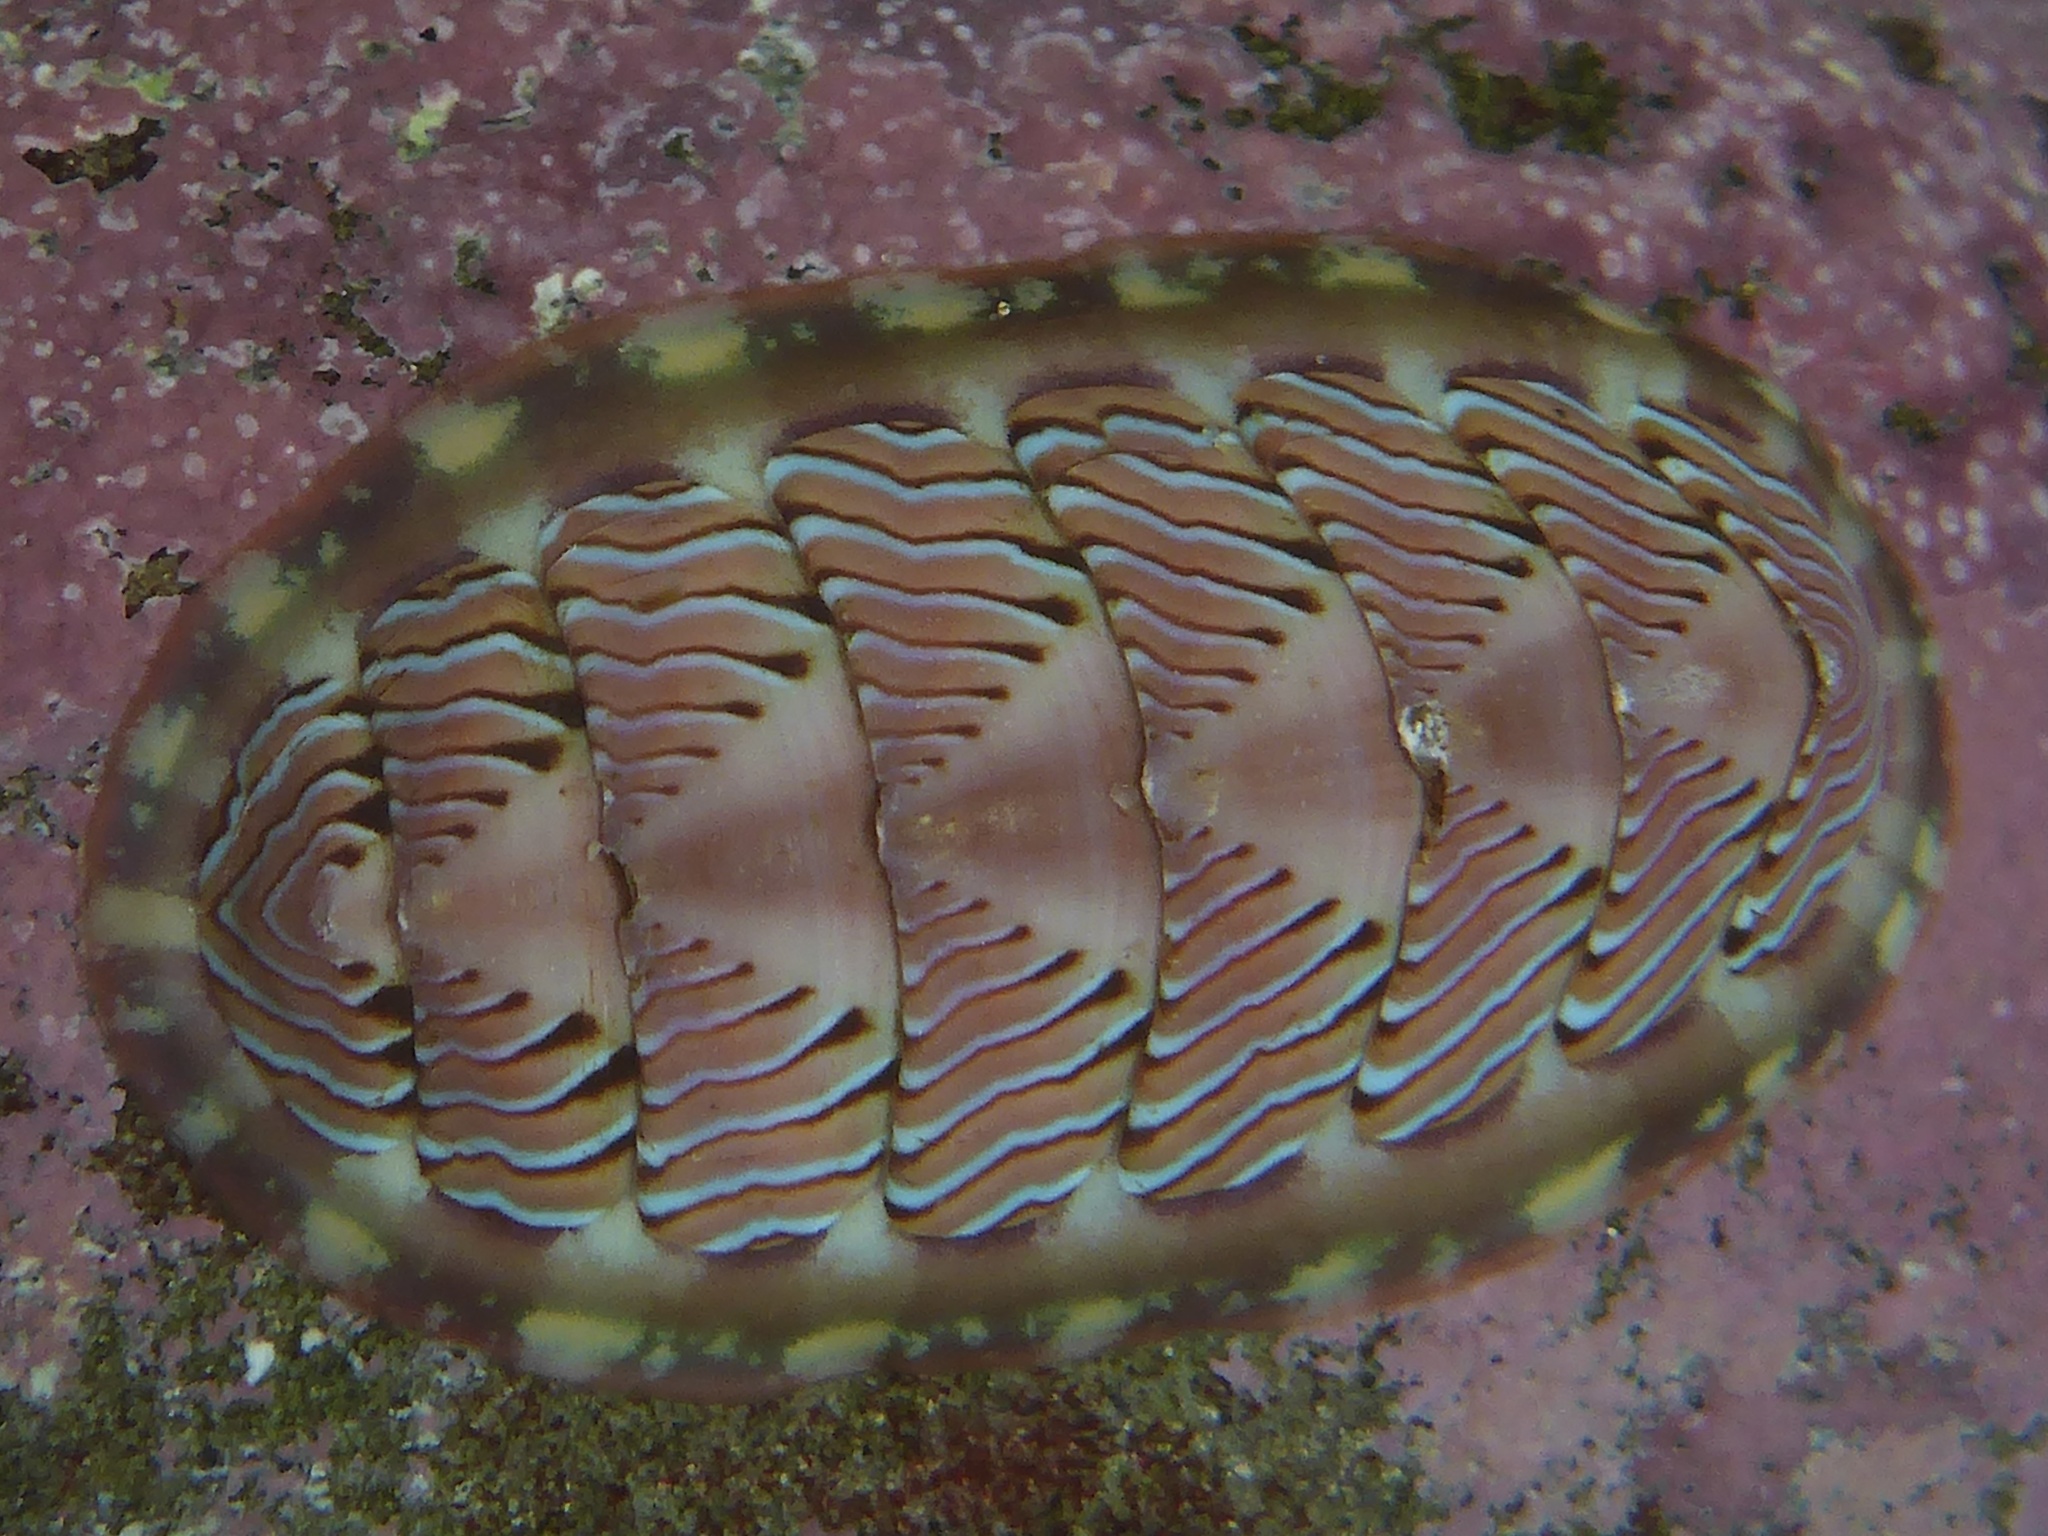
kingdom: Animalia
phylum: Mollusca
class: Polyplacophora
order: Chitonida
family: Tonicellidae
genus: Tonicella
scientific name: Tonicella lineata
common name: Lined chiton
